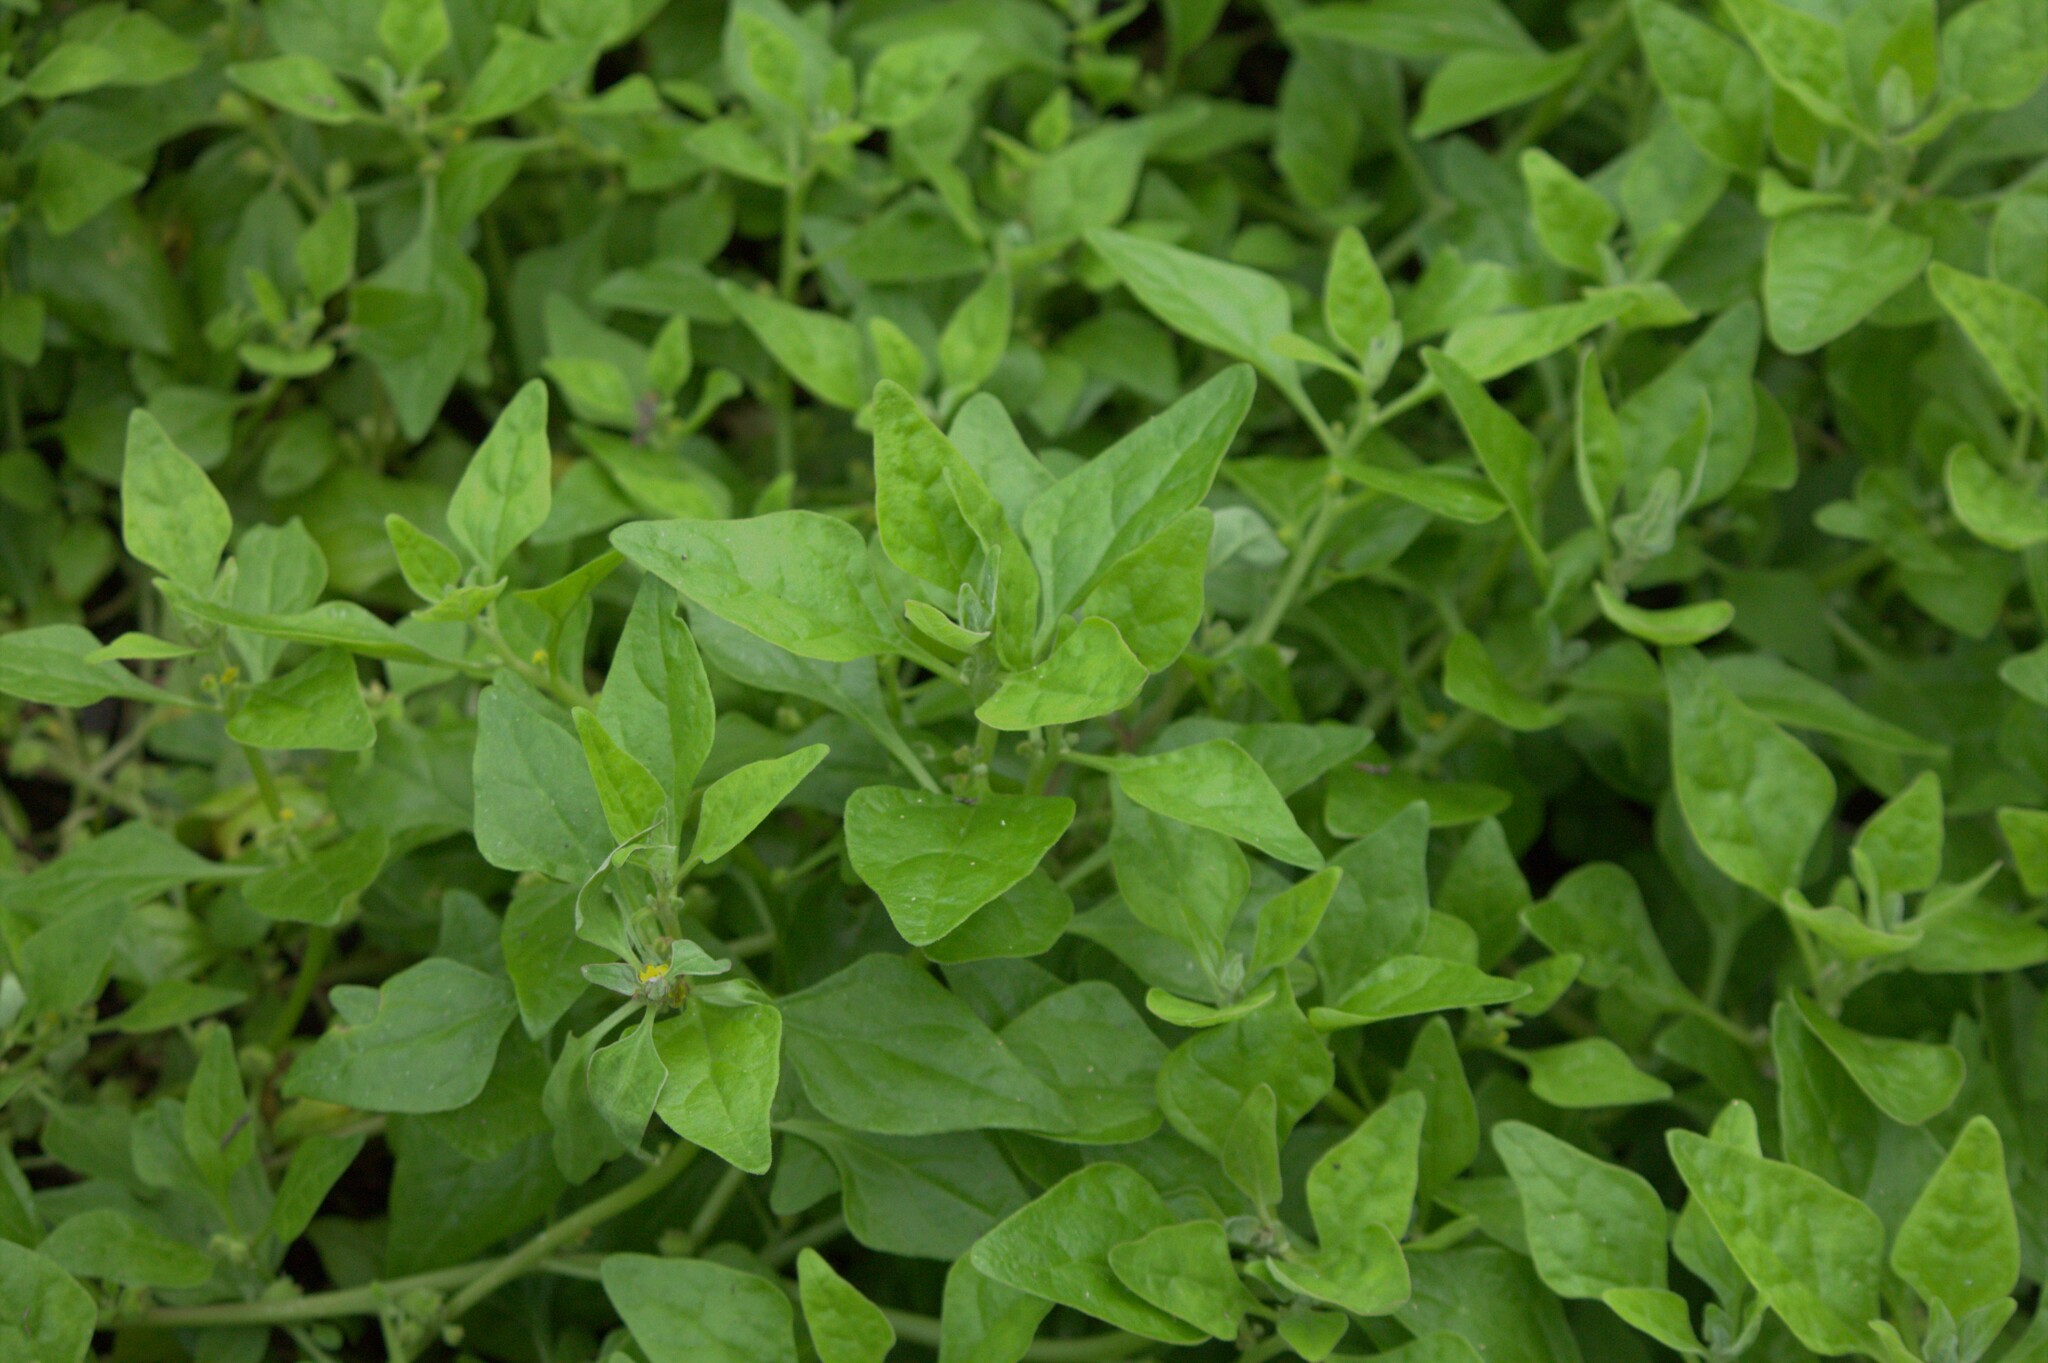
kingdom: Plantae
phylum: Tracheophyta
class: Magnoliopsida
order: Caryophyllales
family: Aizoaceae
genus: Tetragonia
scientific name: Tetragonia tetragonoides
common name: New zealand-spinach
